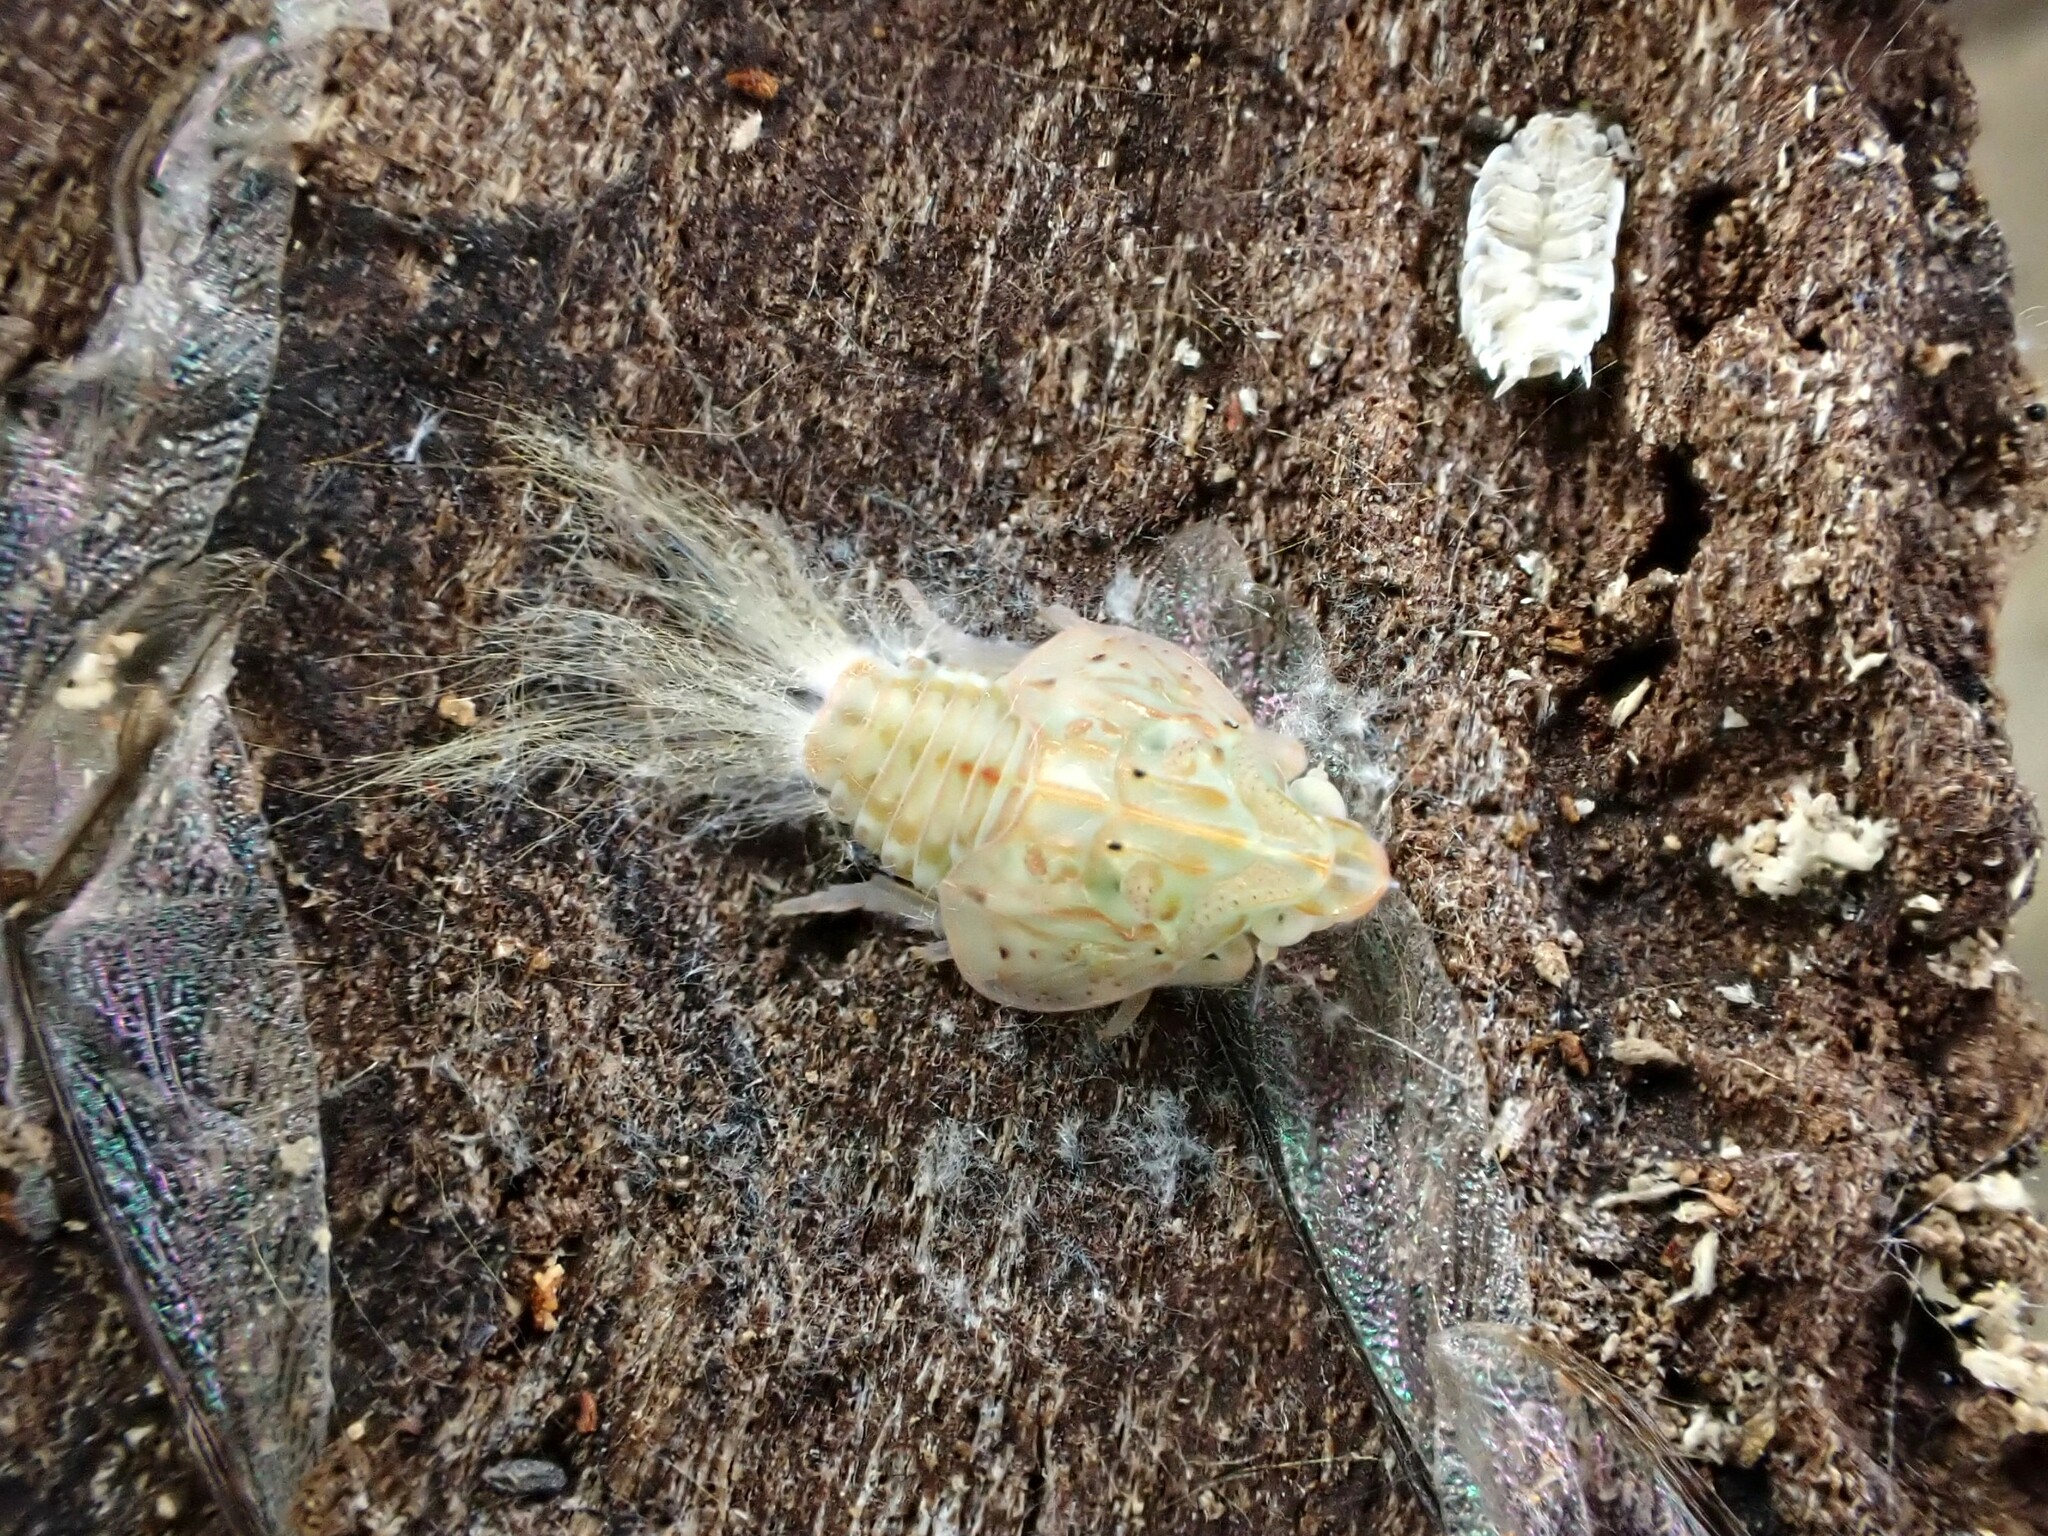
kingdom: Animalia
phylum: Arthropoda
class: Insecta
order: Hemiptera
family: Flatidae
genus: Siphanta
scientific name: Siphanta acuta
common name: Torpedo bug
